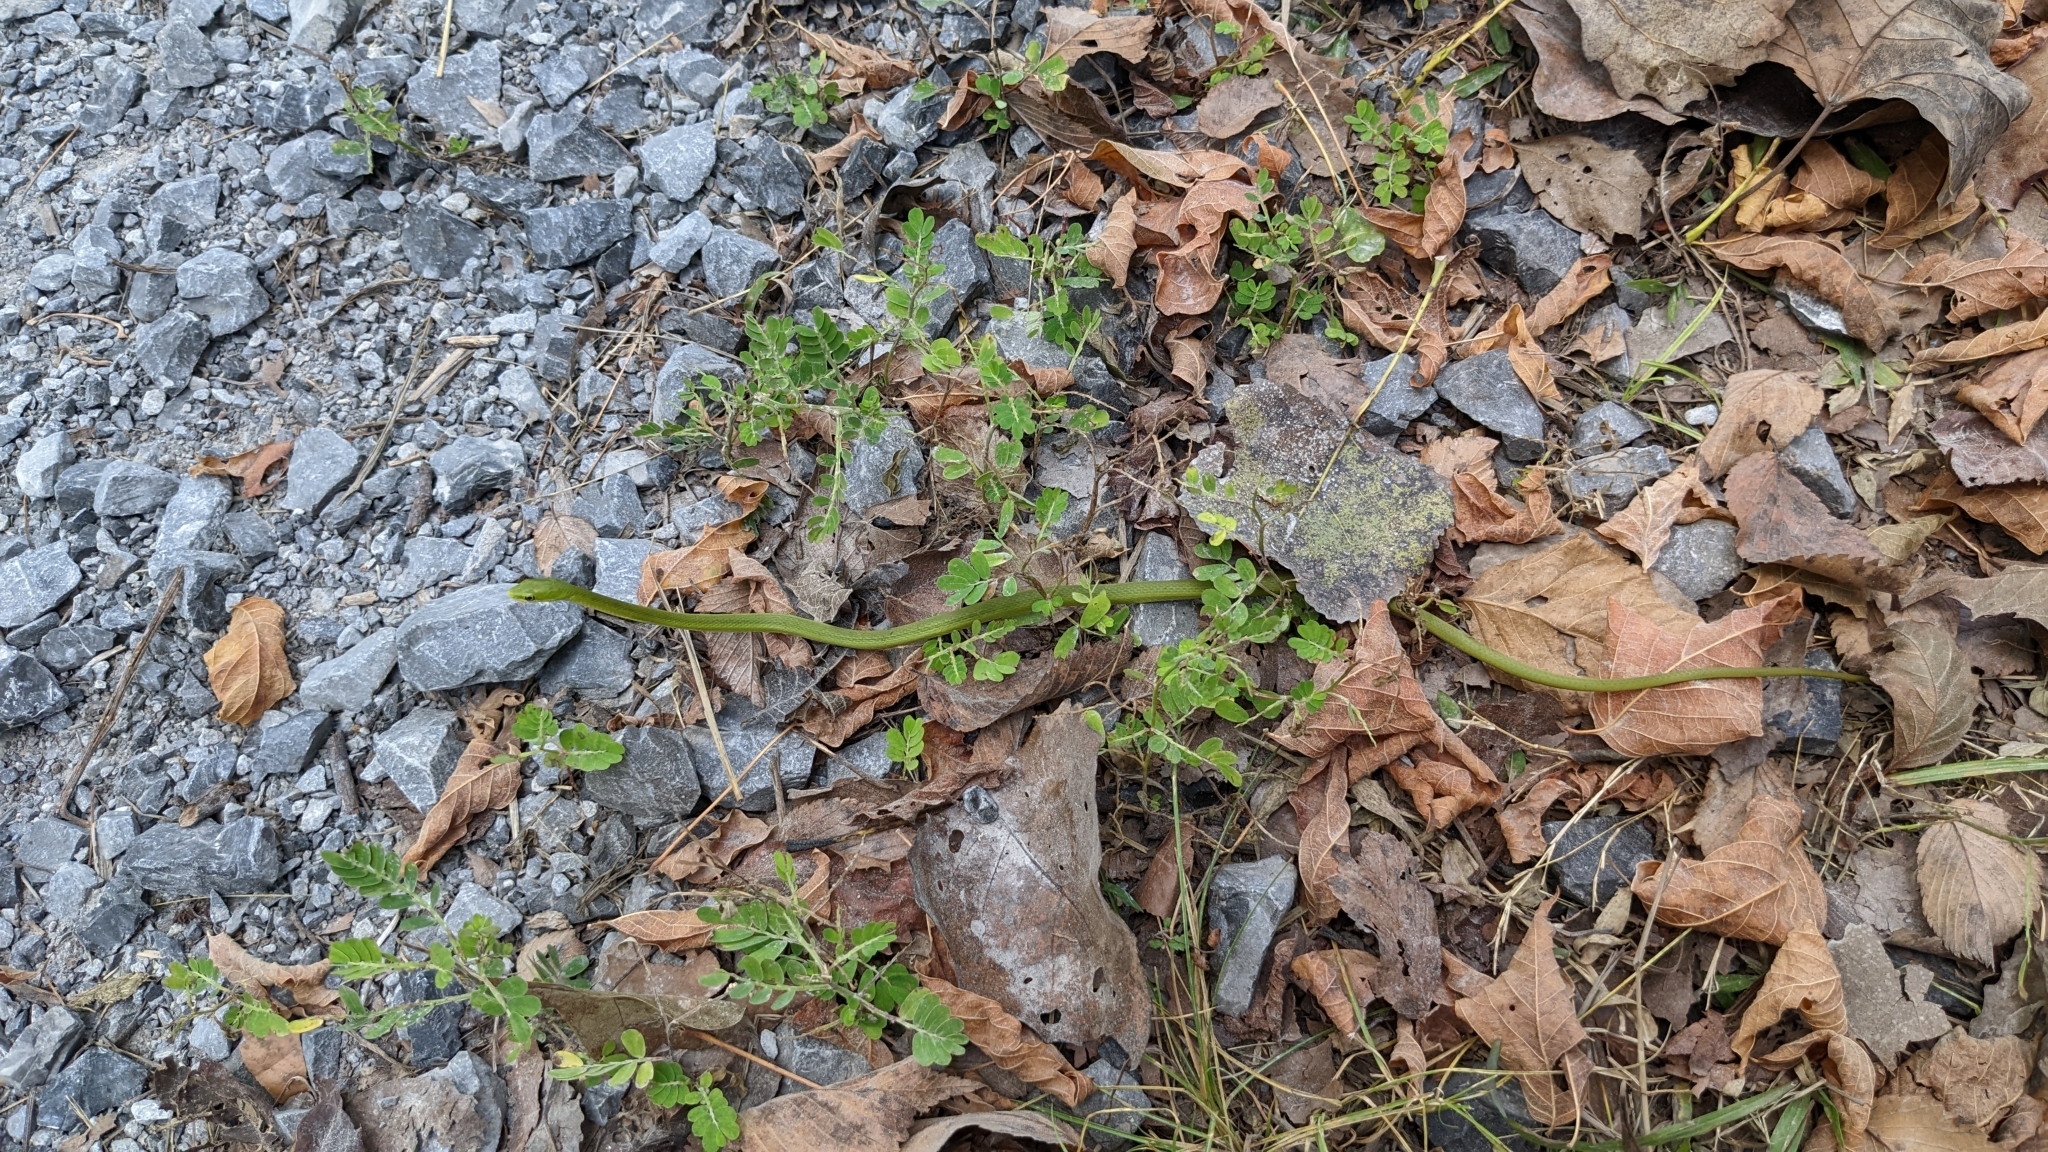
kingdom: Animalia
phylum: Chordata
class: Squamata
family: Colubridae
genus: Opheodrys
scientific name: Opheodrys aestivus
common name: Rough greensnake
